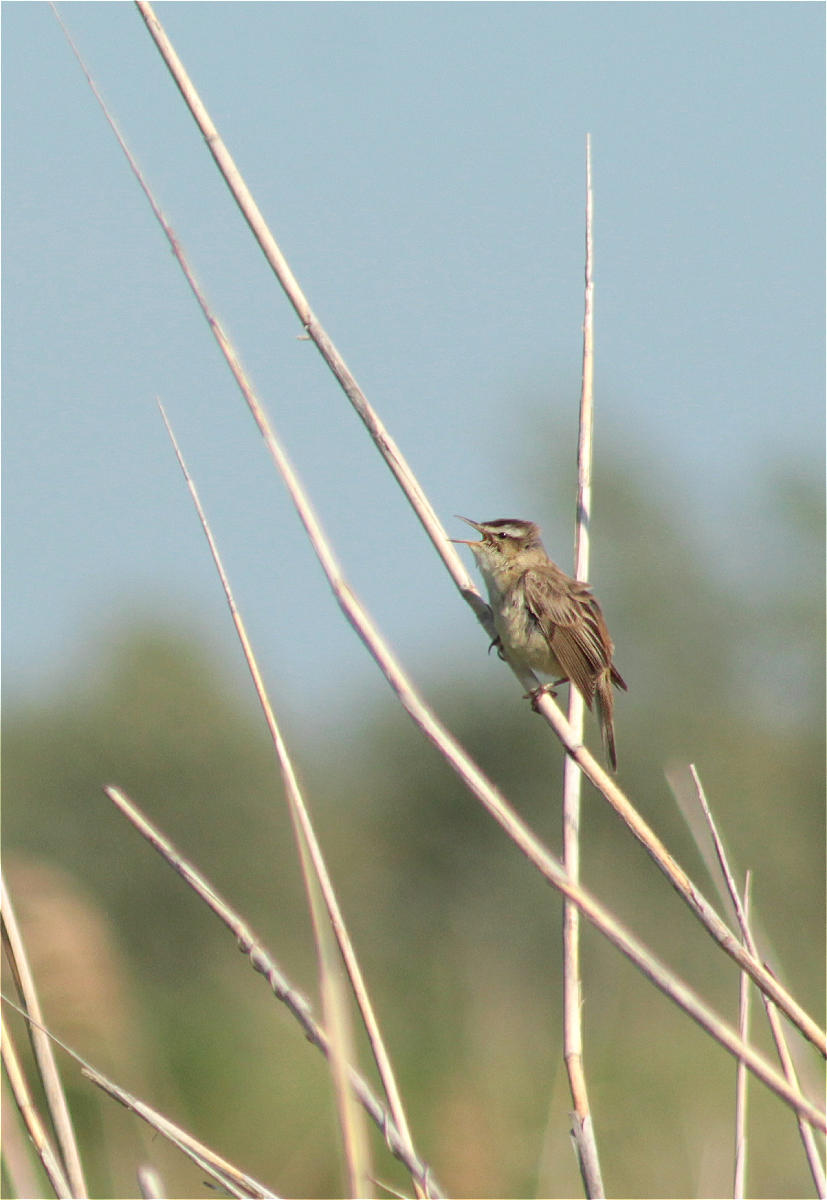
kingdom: Animalia
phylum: Chordata
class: Aves
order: Passeriformes
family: Acrocephalidae
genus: Acrocephalus
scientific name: Acrocephalus schoenobaenus
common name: Sedge warbler
